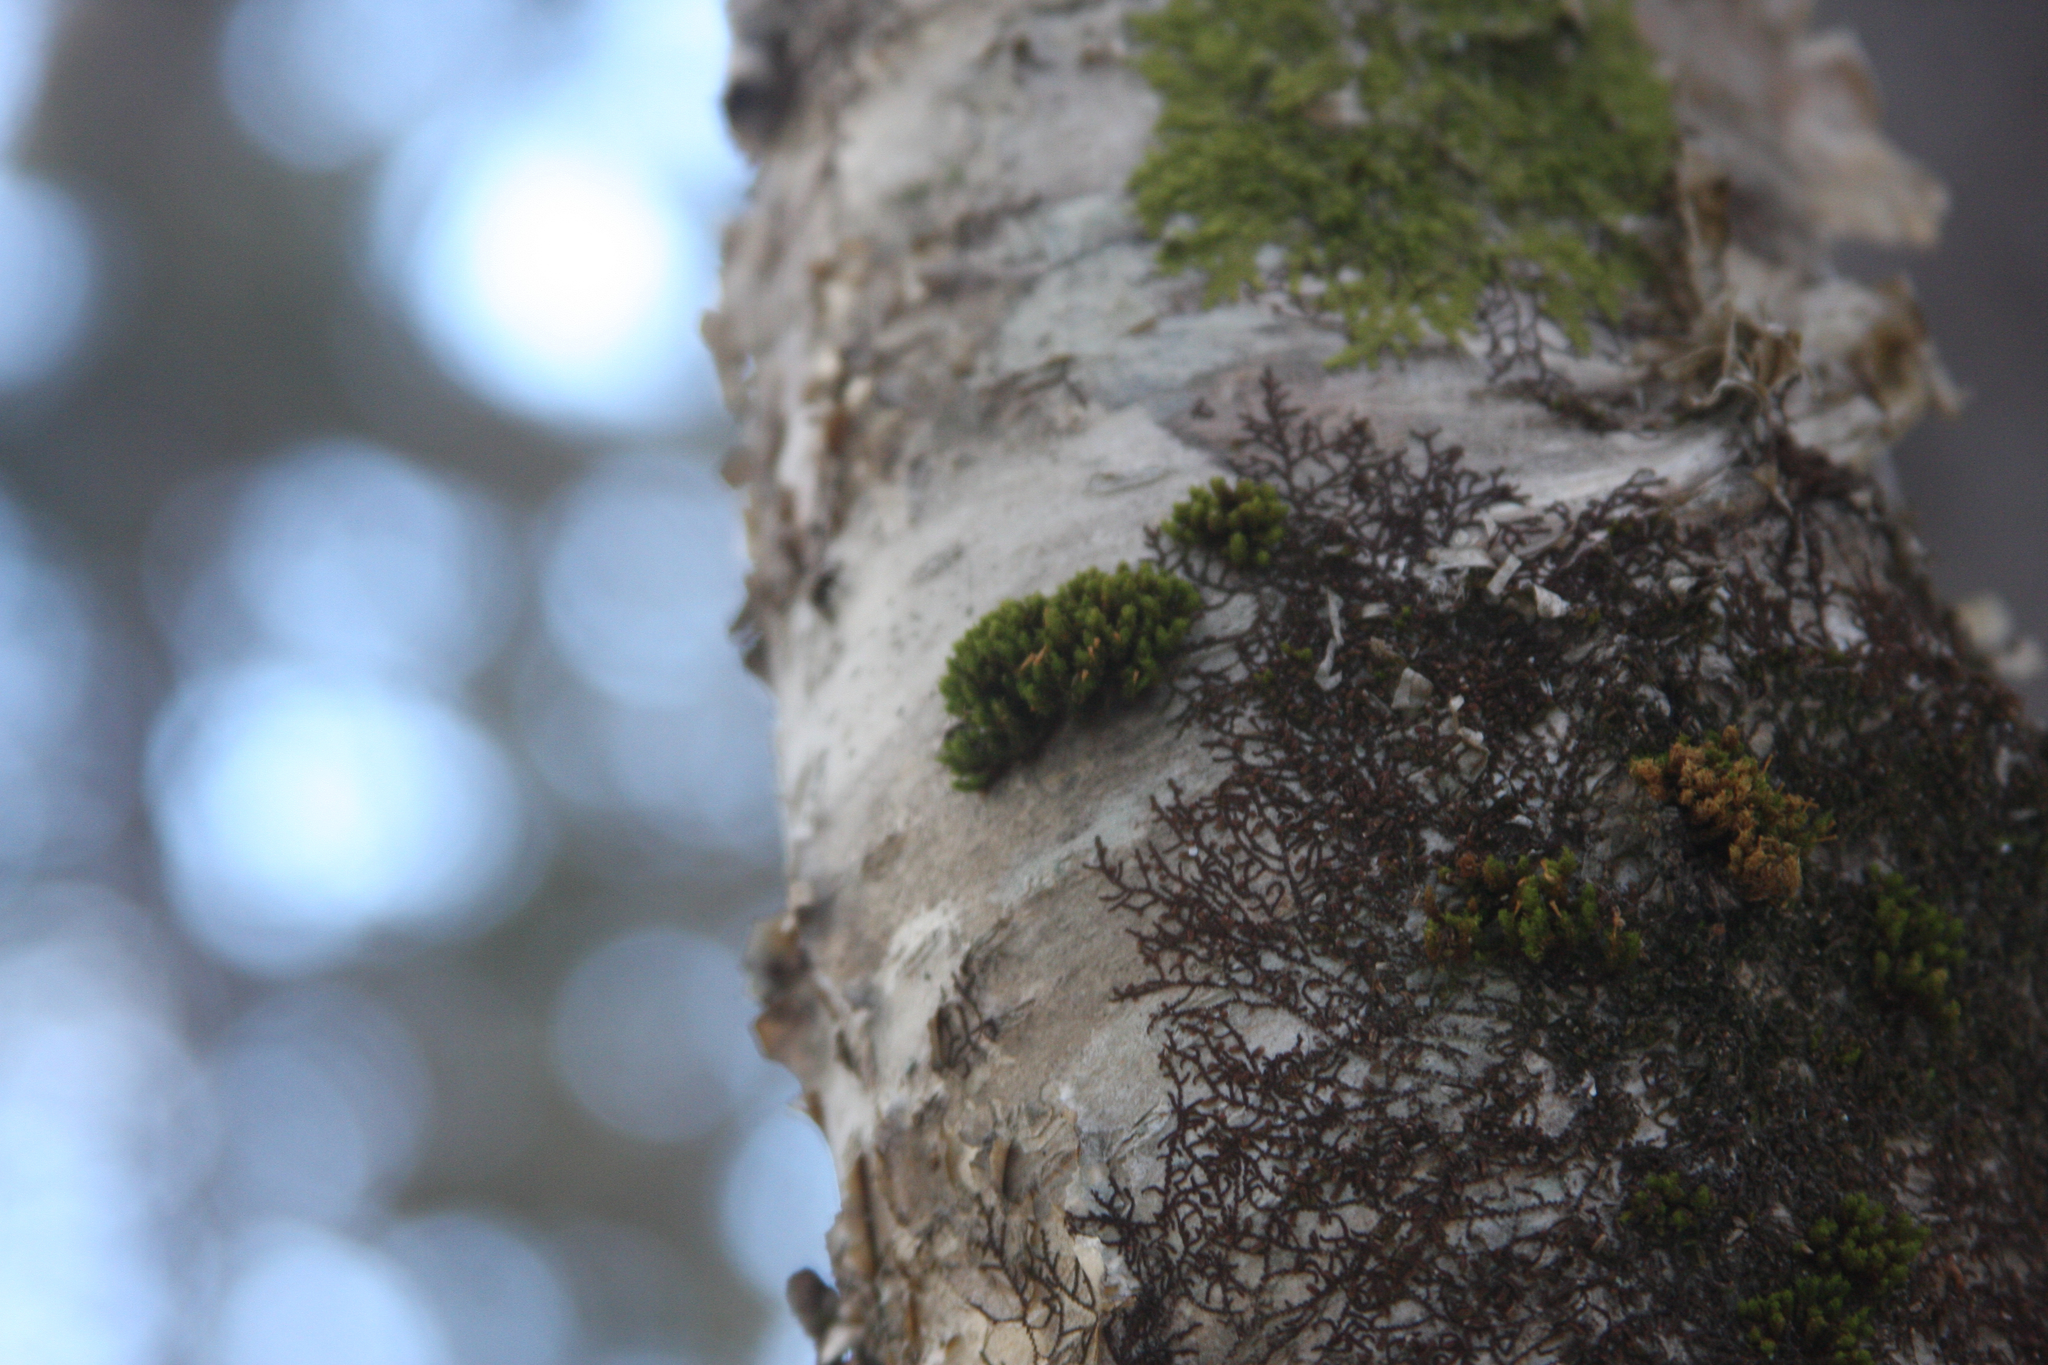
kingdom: Plantae
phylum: Bryophyta
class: Bryopsida
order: Orthotrichales
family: Orthotrichaceae
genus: Ulota
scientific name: Ulota crispa
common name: Crisped pincushion moss
